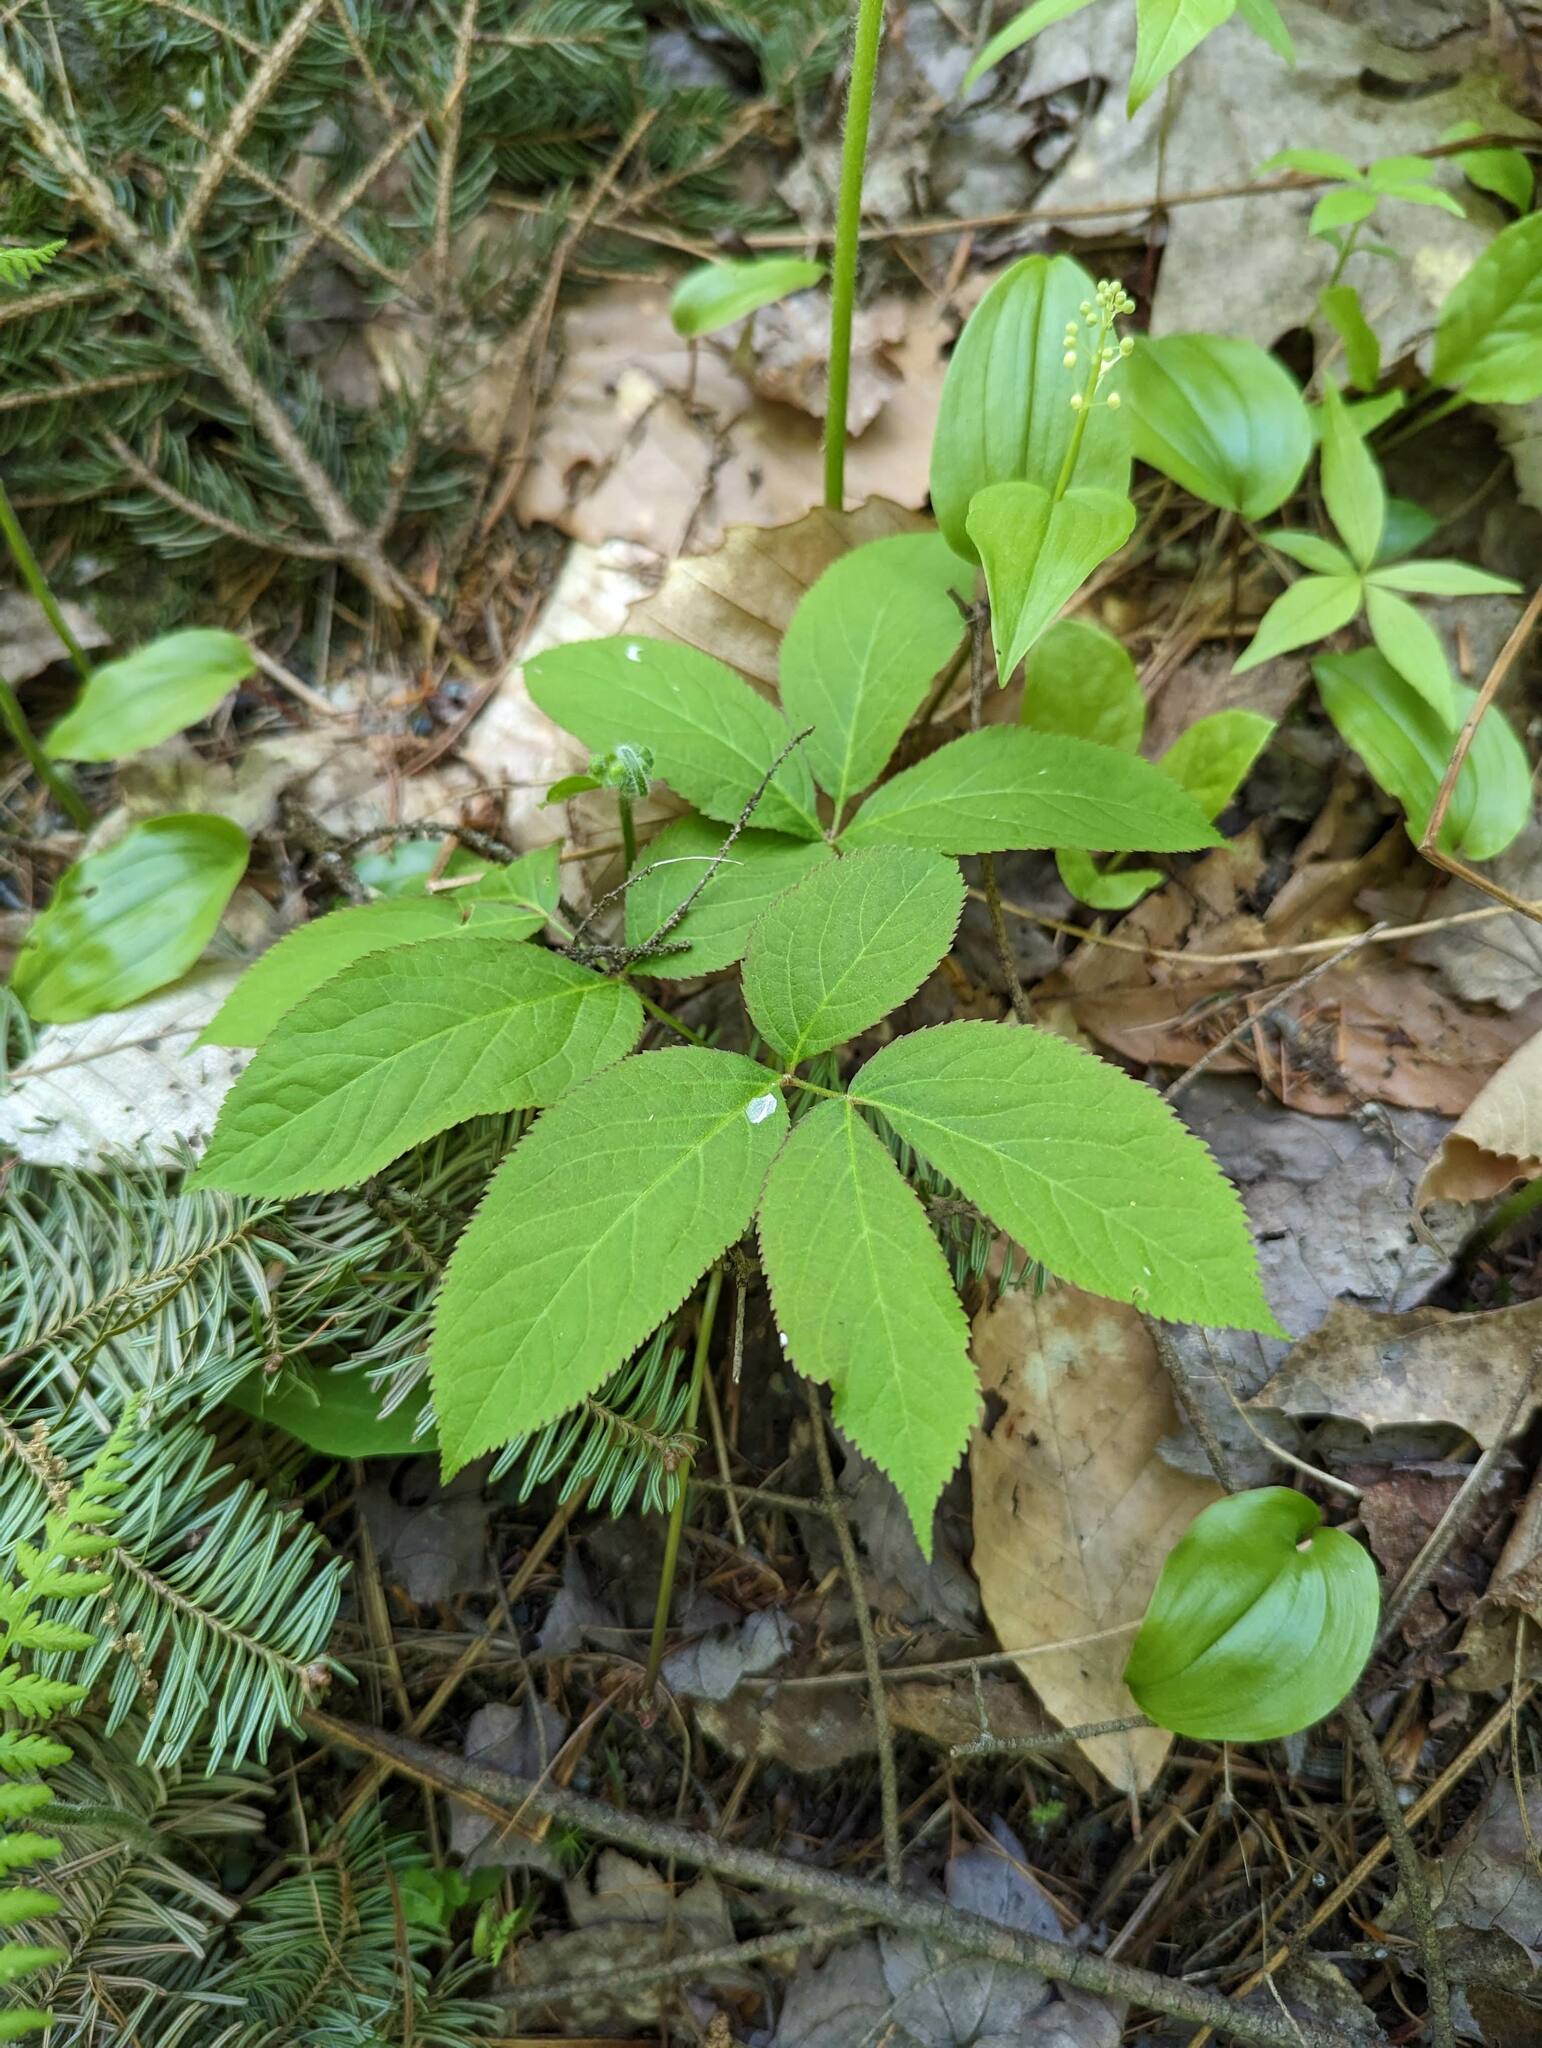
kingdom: Plantae
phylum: Tracheophyta
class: Magnoliopsida
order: Apiales
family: Araliaceae
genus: Aralia
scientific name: Aralia nudicaulis
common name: Wild sarsaparilla
